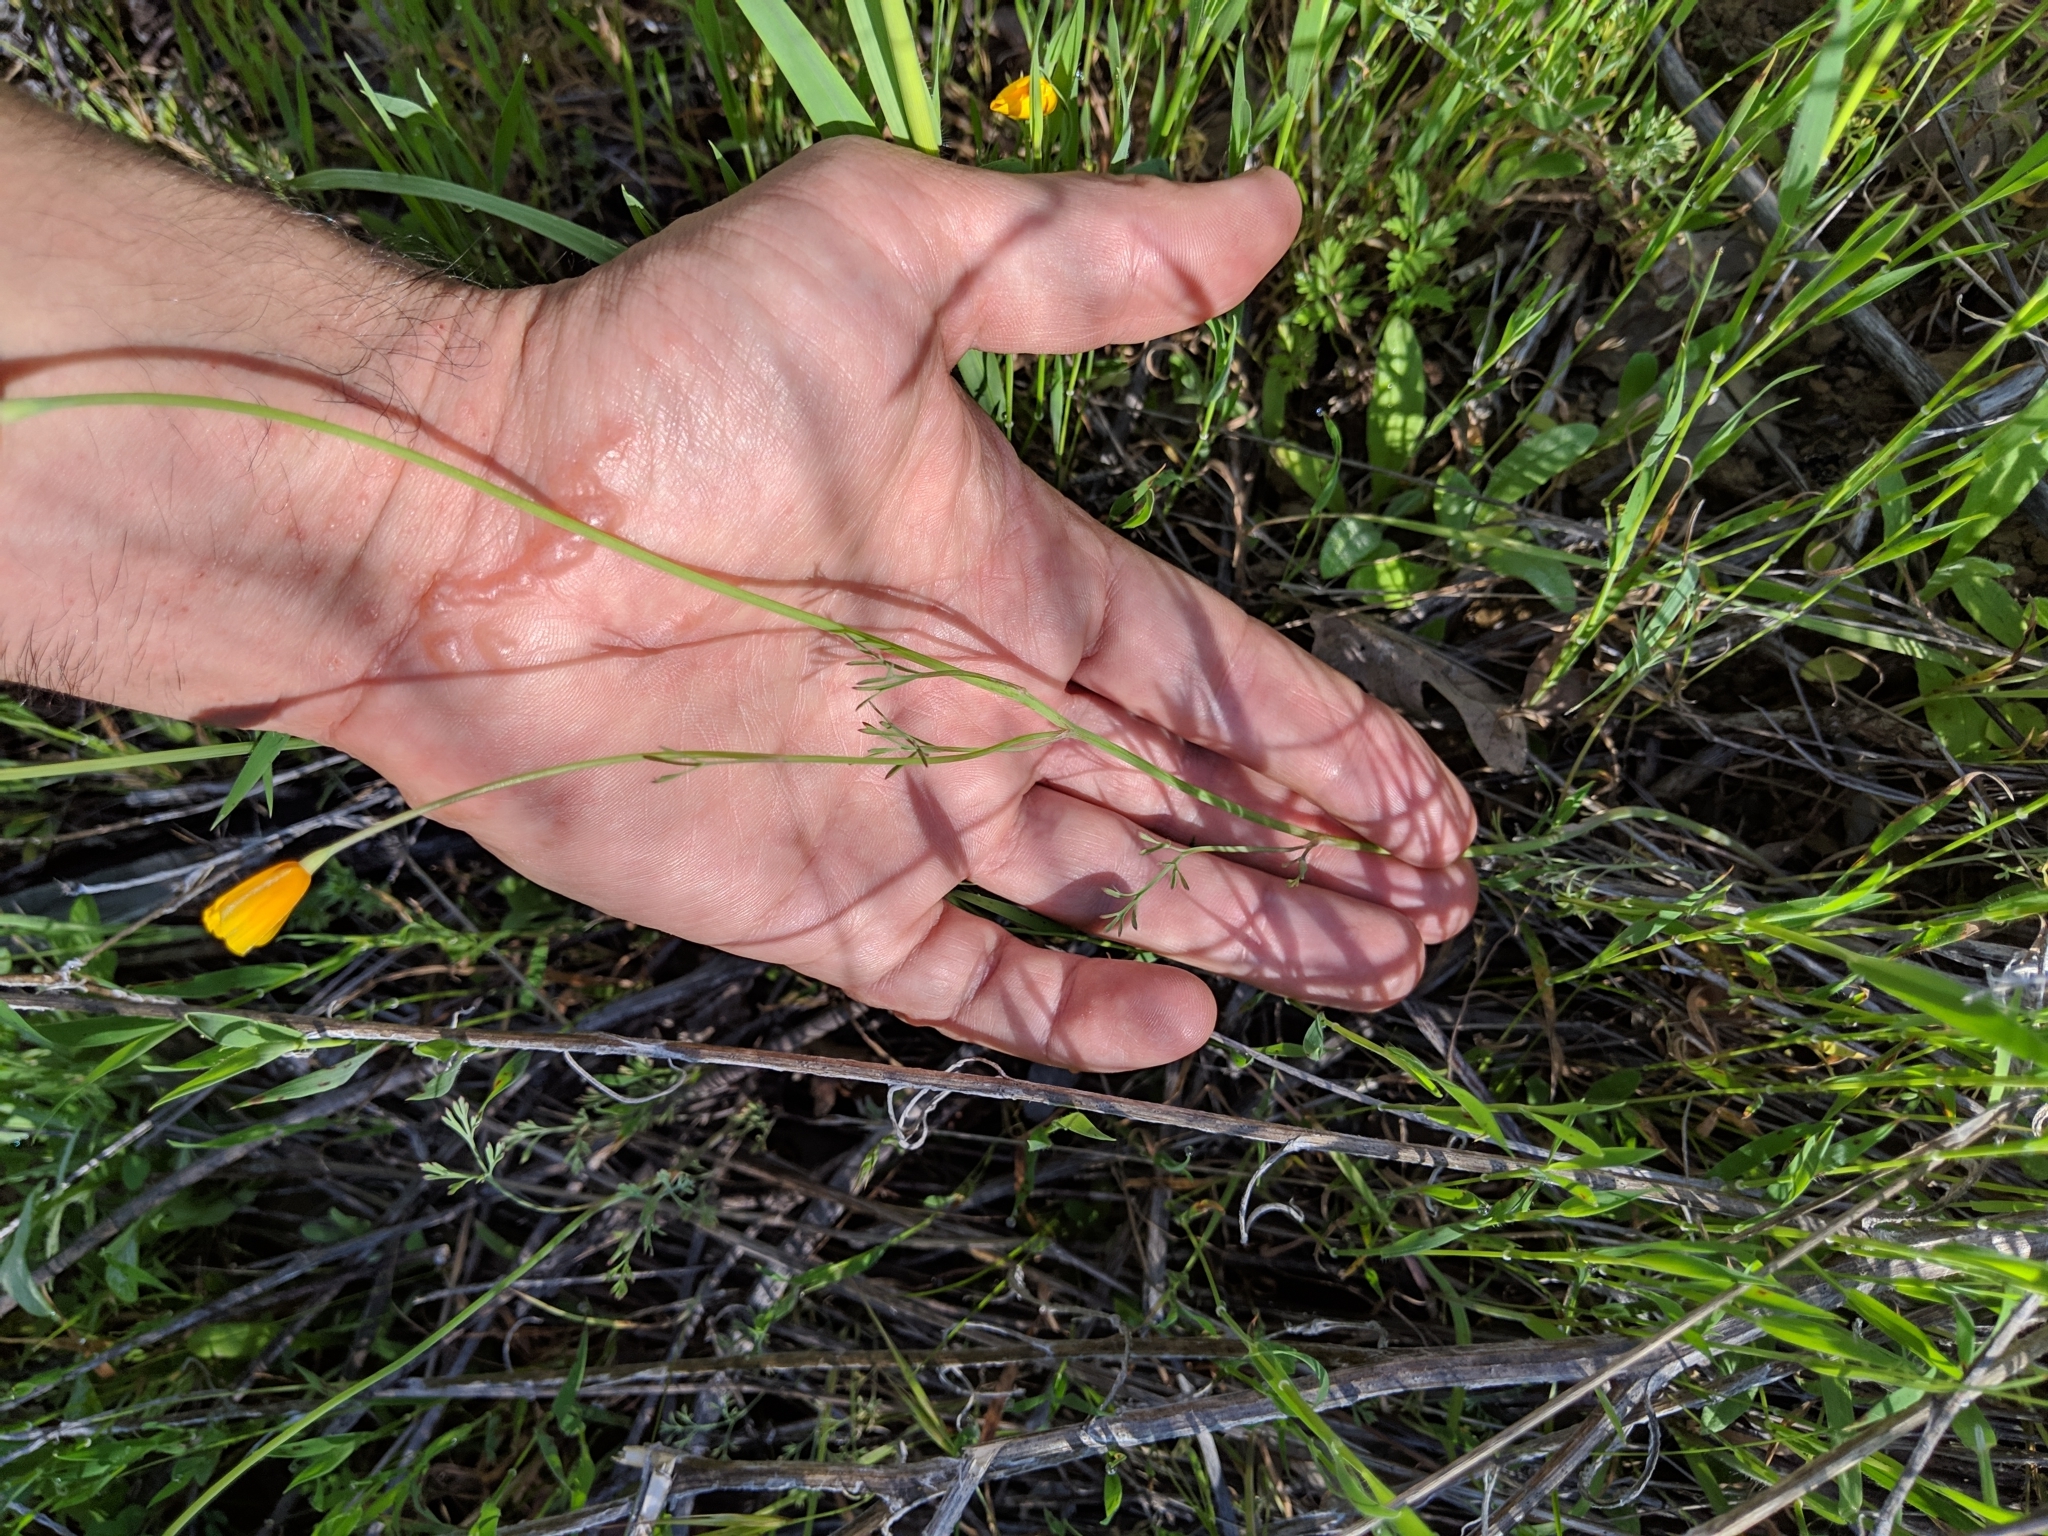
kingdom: Plantae
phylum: Tracheophyta
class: Magnoliopsida
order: Ranunculales
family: Papaveraceae
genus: Eschscholzia
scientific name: Eschscholzia caespitosa
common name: Tufted california-poppy
